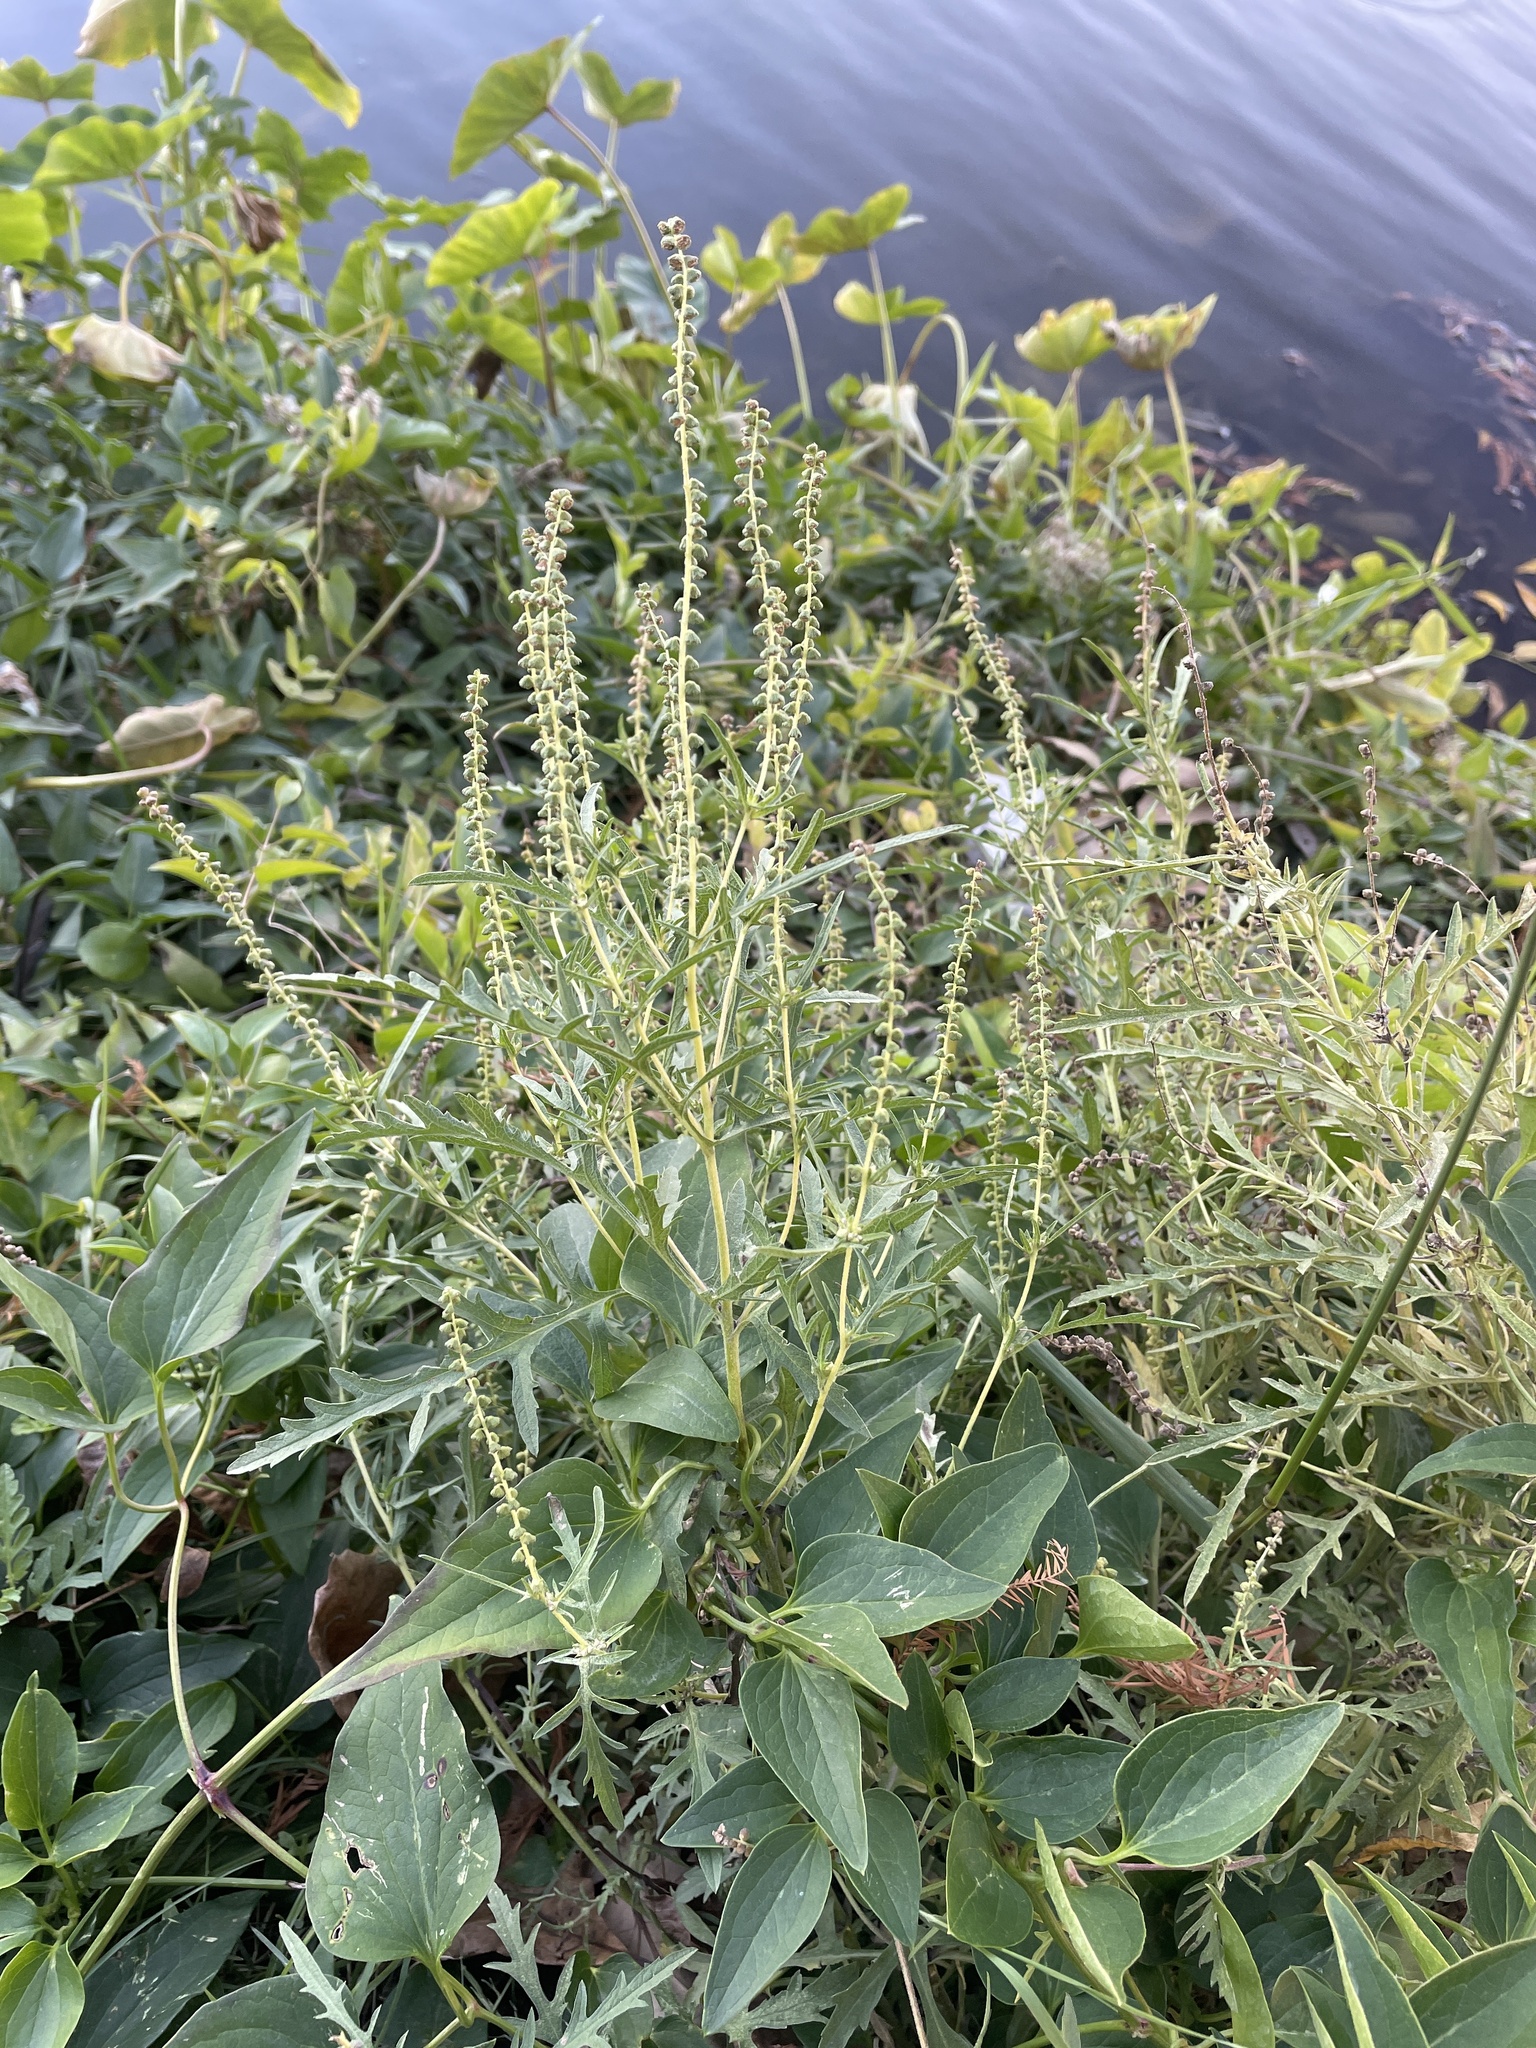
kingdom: Plantae
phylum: Tracheophyta
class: Magnoliopsida
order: Asterales
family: Asteraceae
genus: Ambrosia
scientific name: Ambrosia psilostachya
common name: Perennial ragweed
